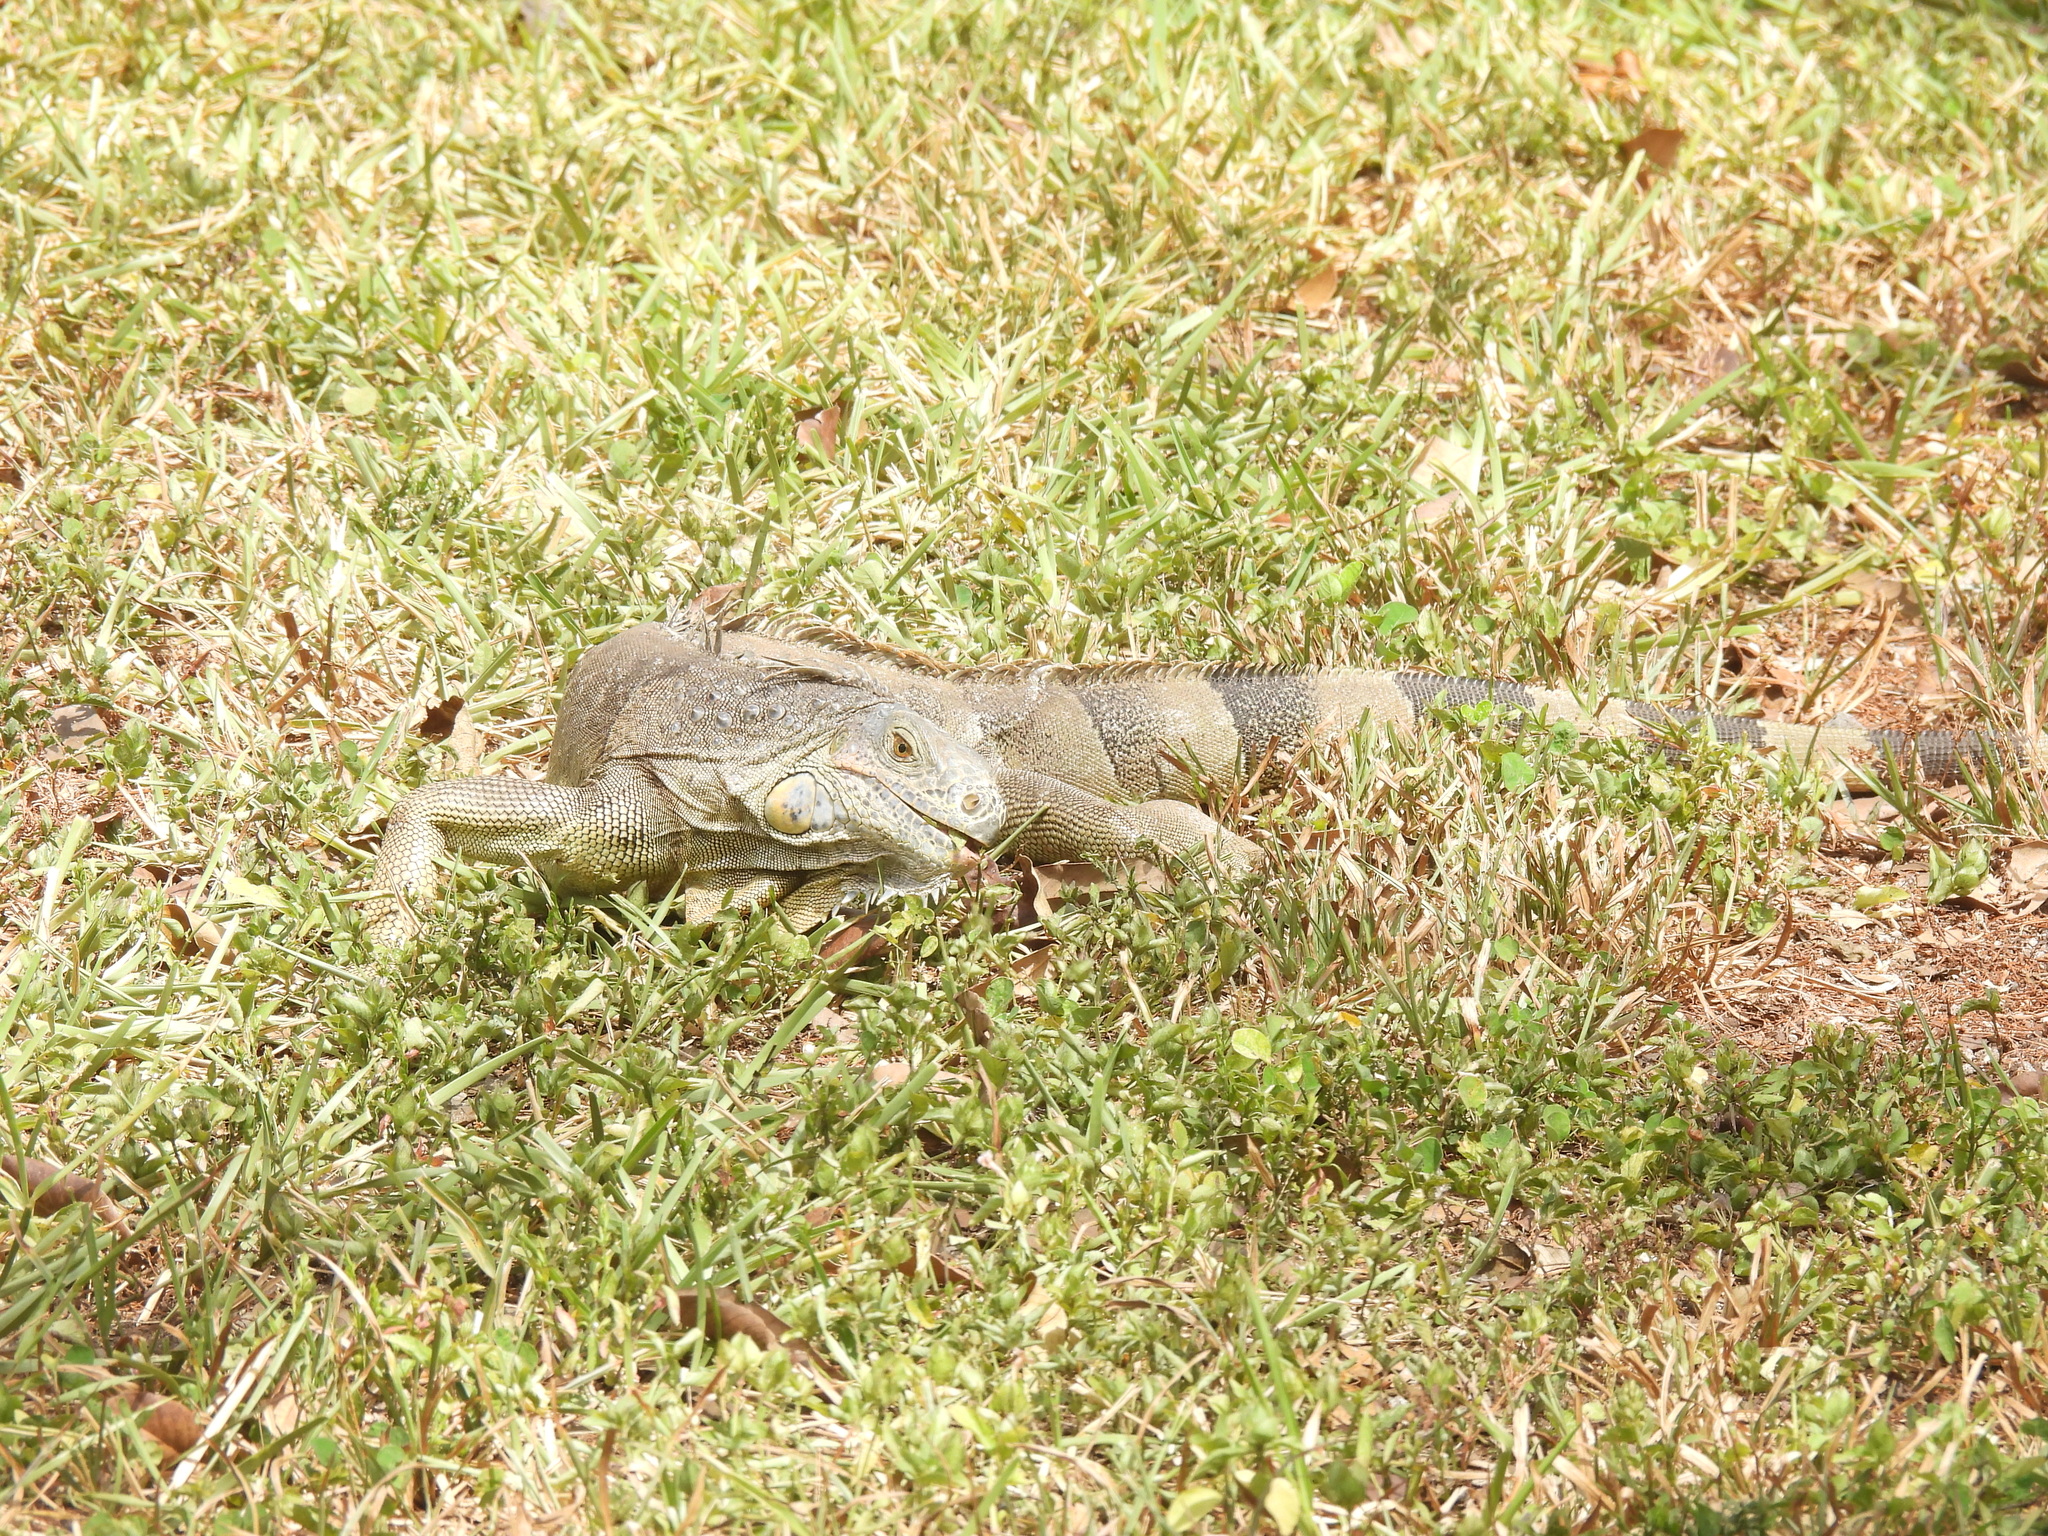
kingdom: Animalia
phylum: Chordata
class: Squamata
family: Iguanidae
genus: Iguana
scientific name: Iguana iguana
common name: Green iguana
